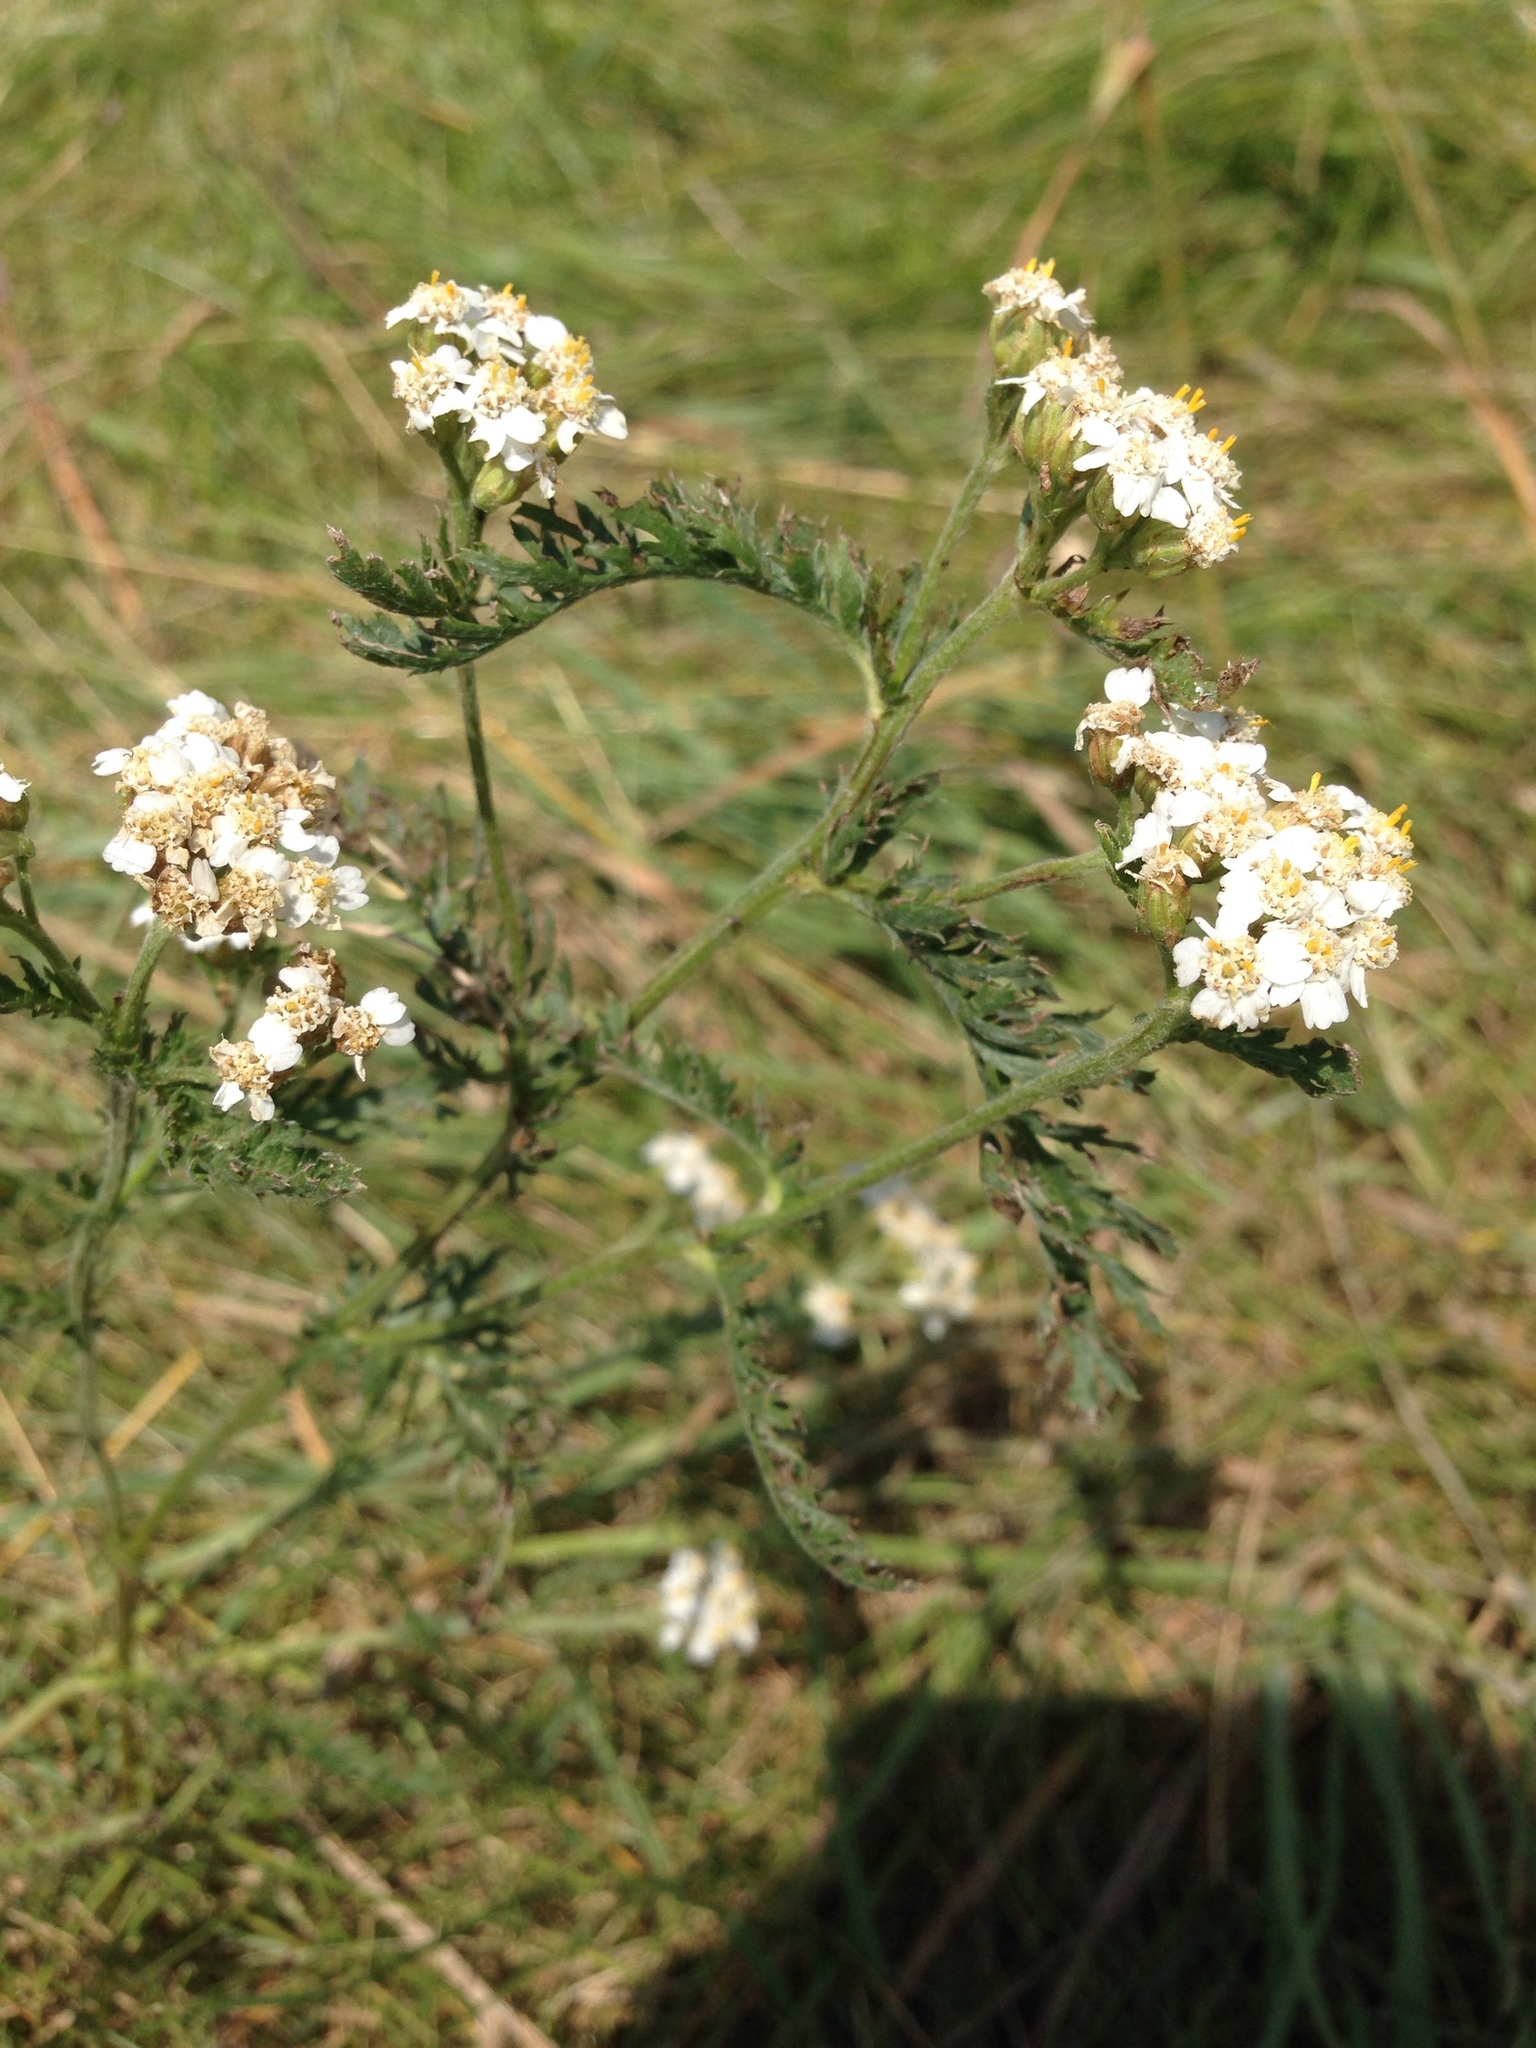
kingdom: Plantae
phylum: Tracheophyta
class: Magnoliopsida
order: Asterales
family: Asteraceae
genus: Achillea
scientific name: Achillea millefolium
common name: Yarrow
